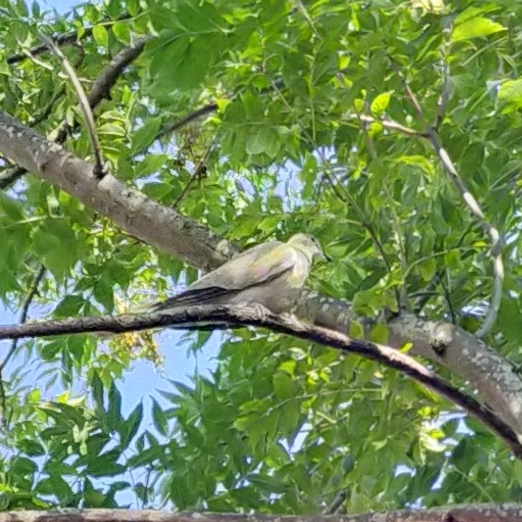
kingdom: Animalia
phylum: Chordata
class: Aves
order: Columbiformes
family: Columbidae
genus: Streptopelia
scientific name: Streptopelia decaocto
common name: Eurasian collared dove
